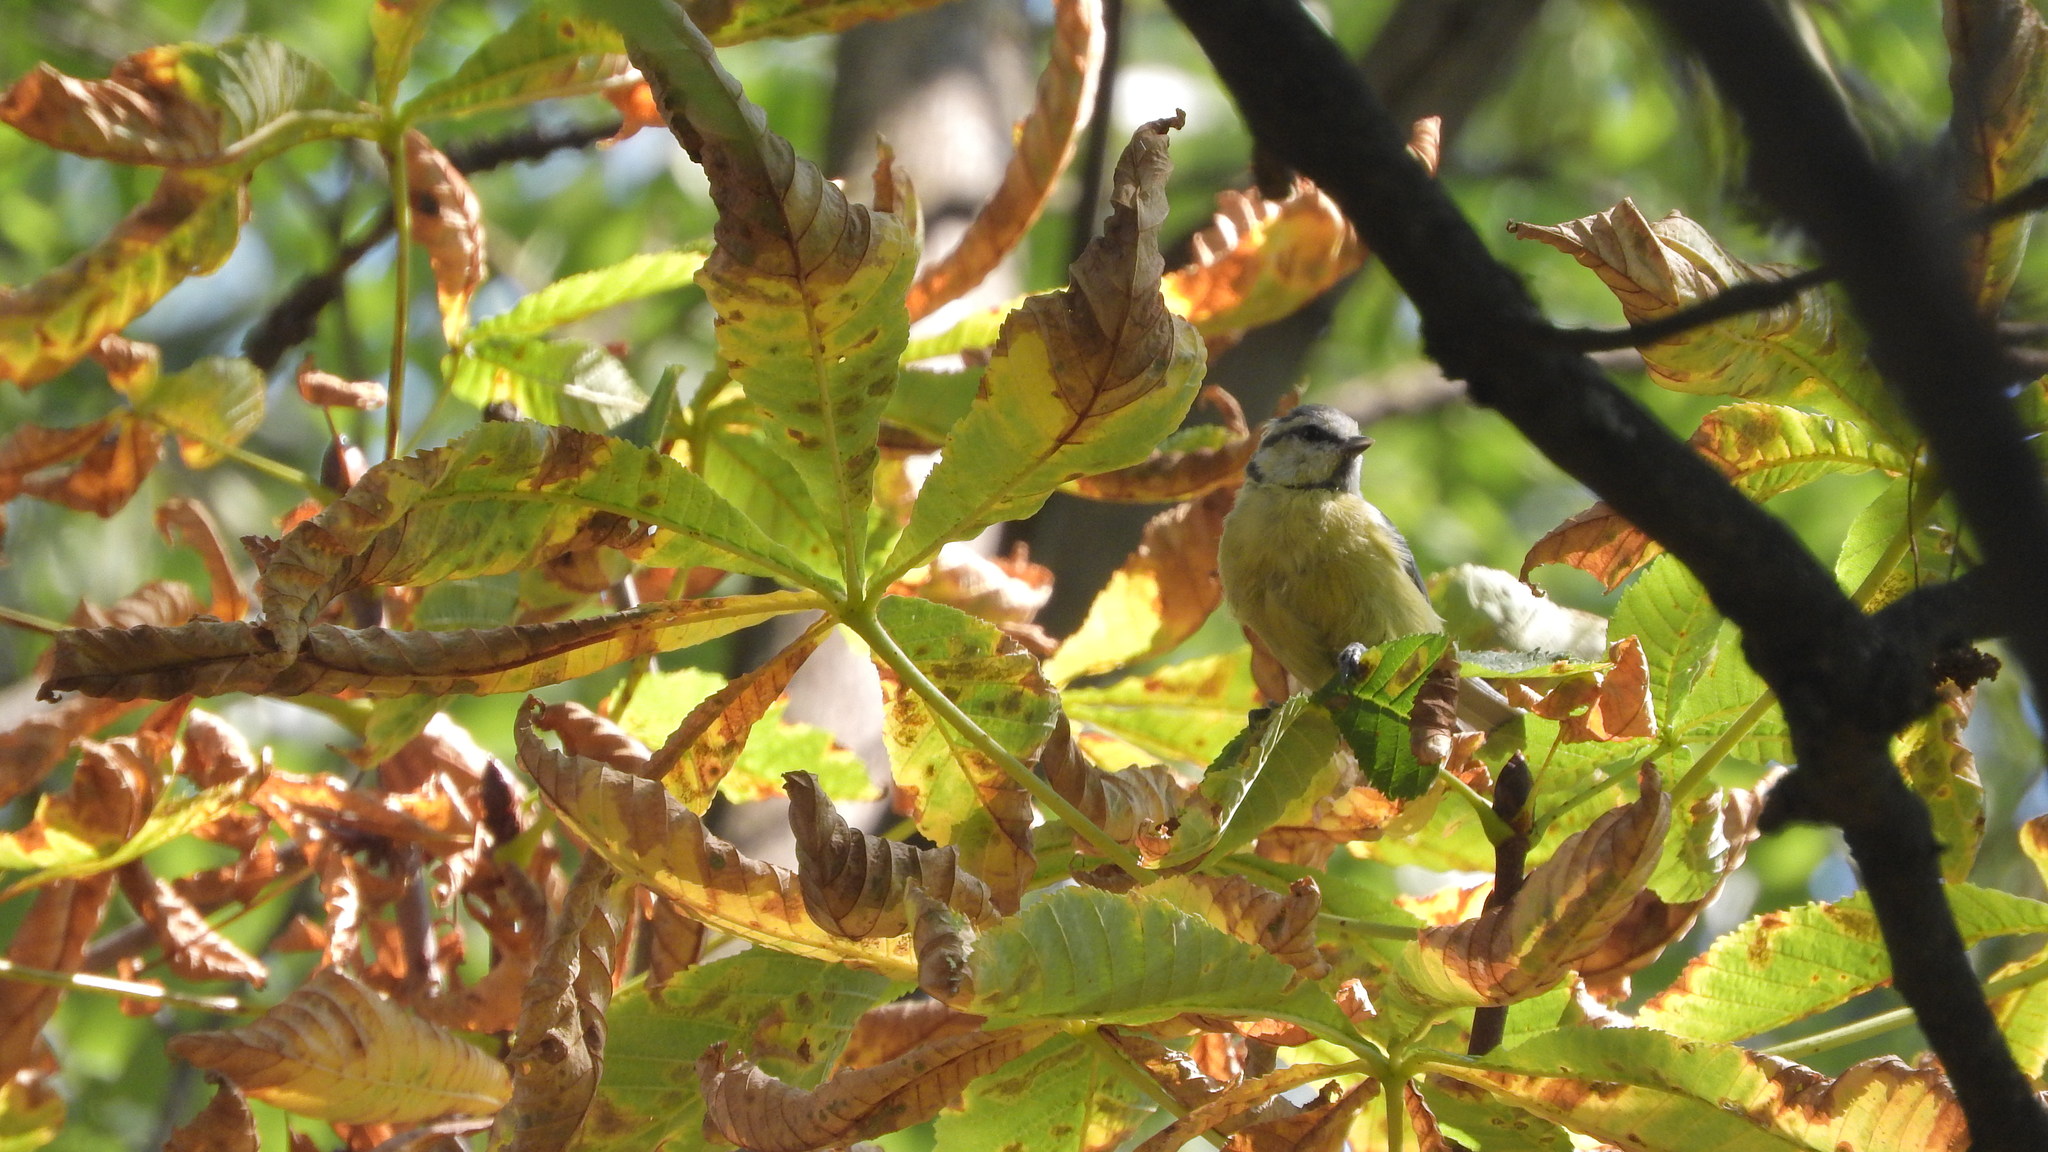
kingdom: Animalia
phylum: Chordata
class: Aves
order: Passeriformes
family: Paridae
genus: Cyanistes
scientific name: Cyanistes caeruleus
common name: Eurasian blue tit
